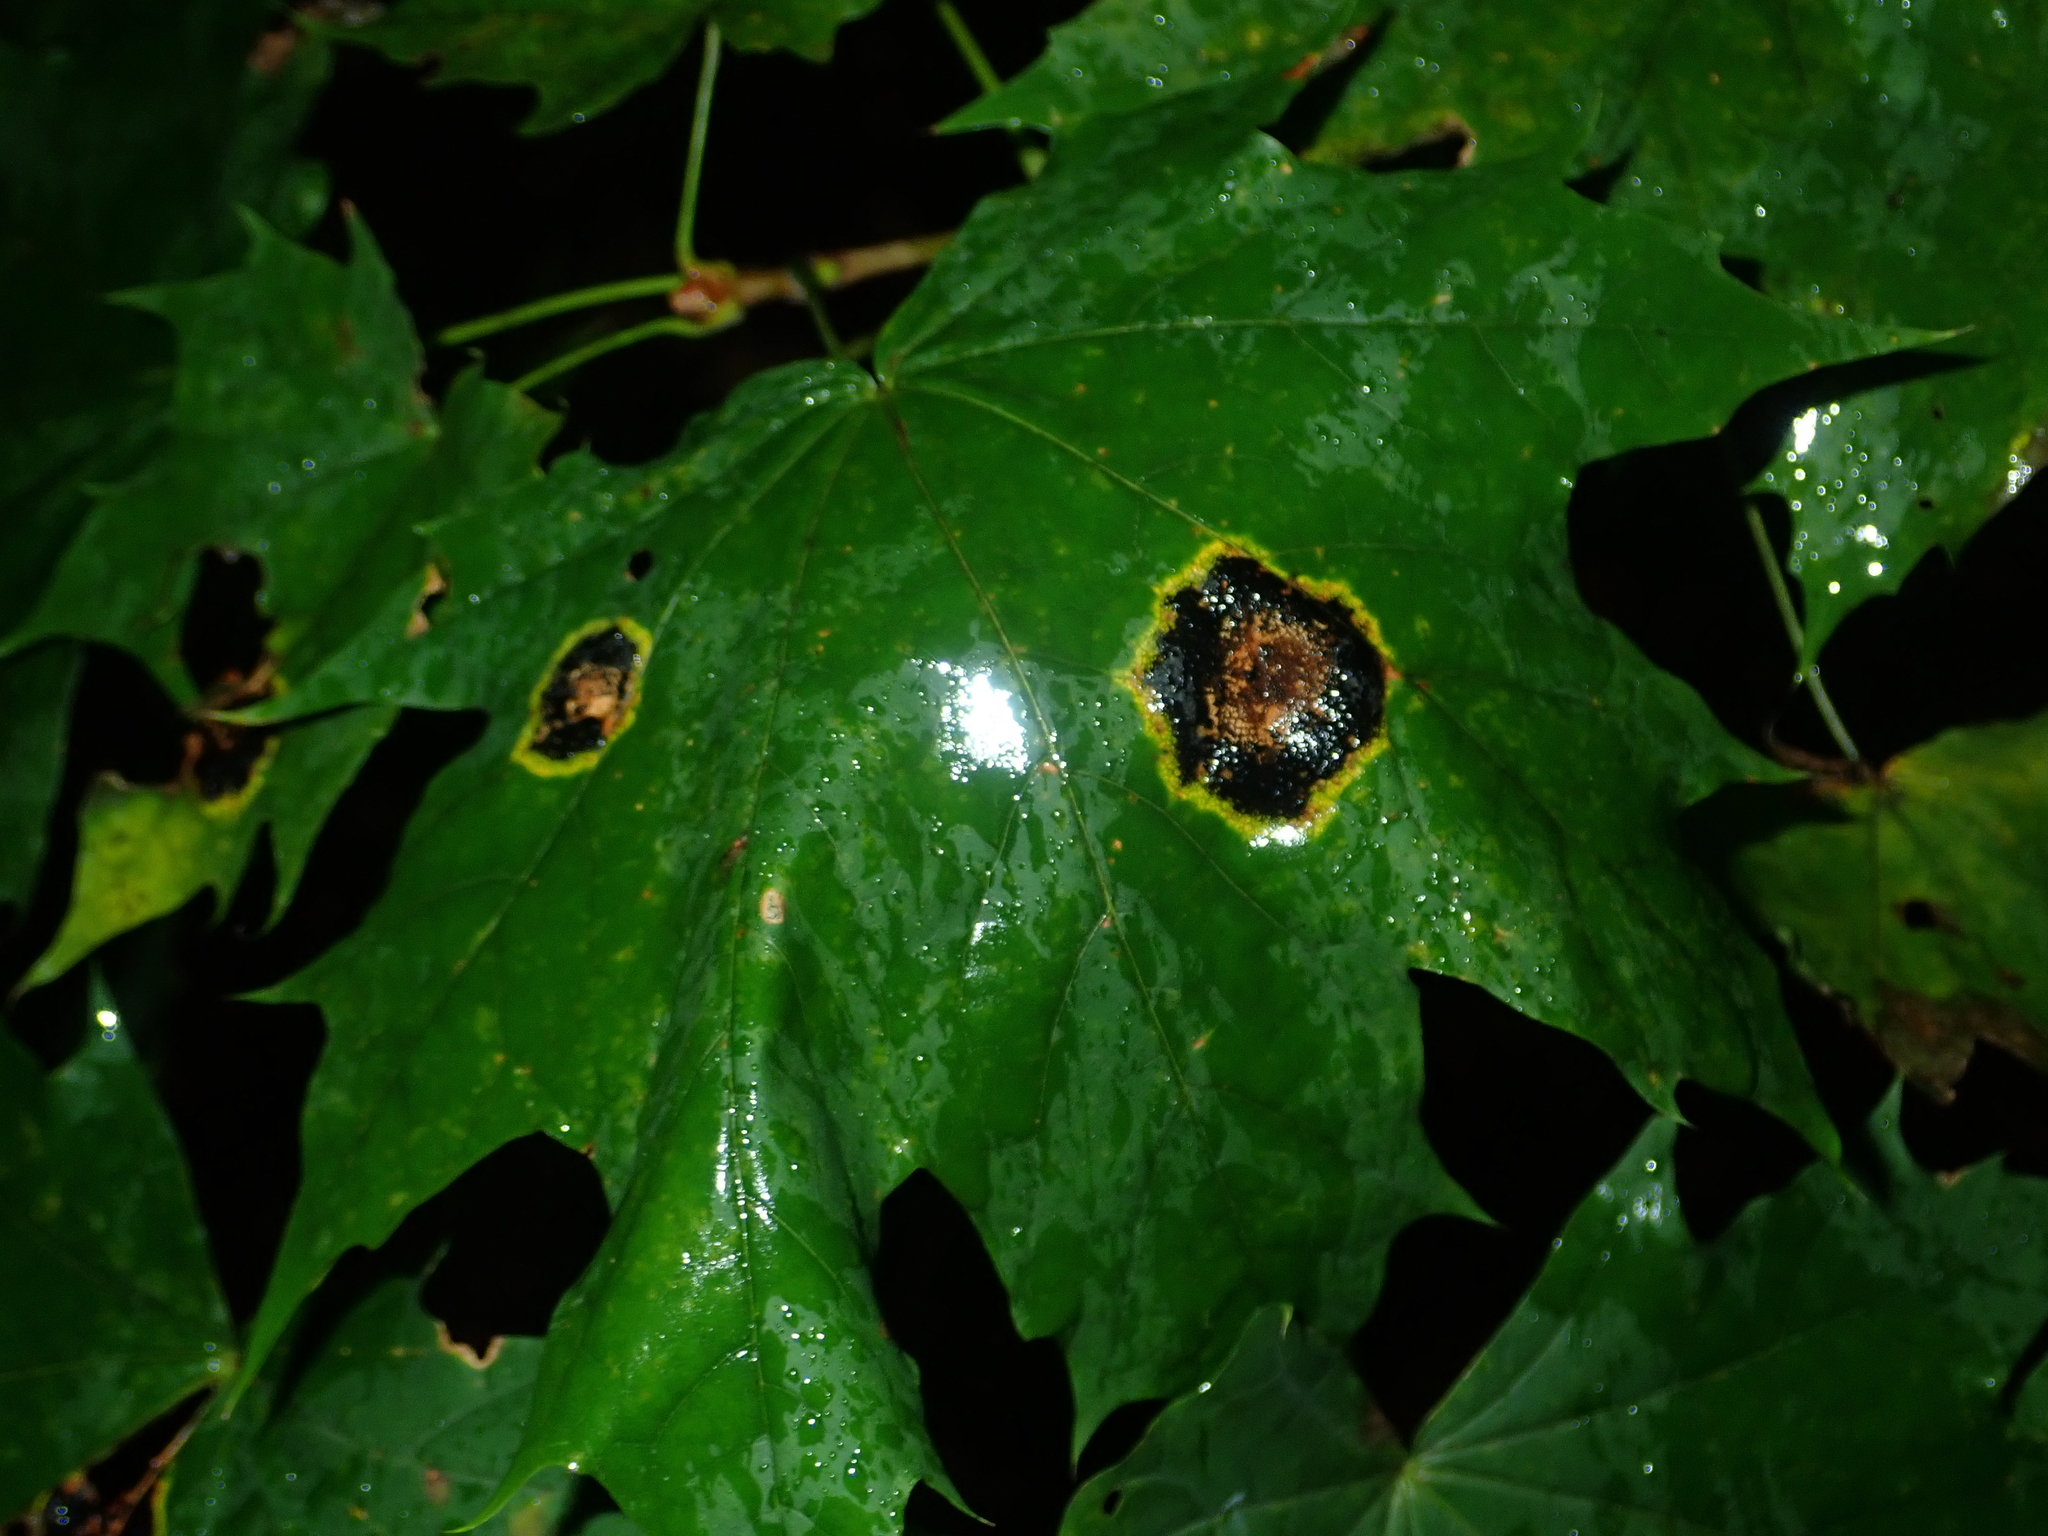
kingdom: Fungi
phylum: Ascomycota
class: Leotiomycetes
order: Rhytismatales
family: Rhytismataceae
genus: Rhytisma
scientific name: Rhytisma acerinum
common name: European tar spot
